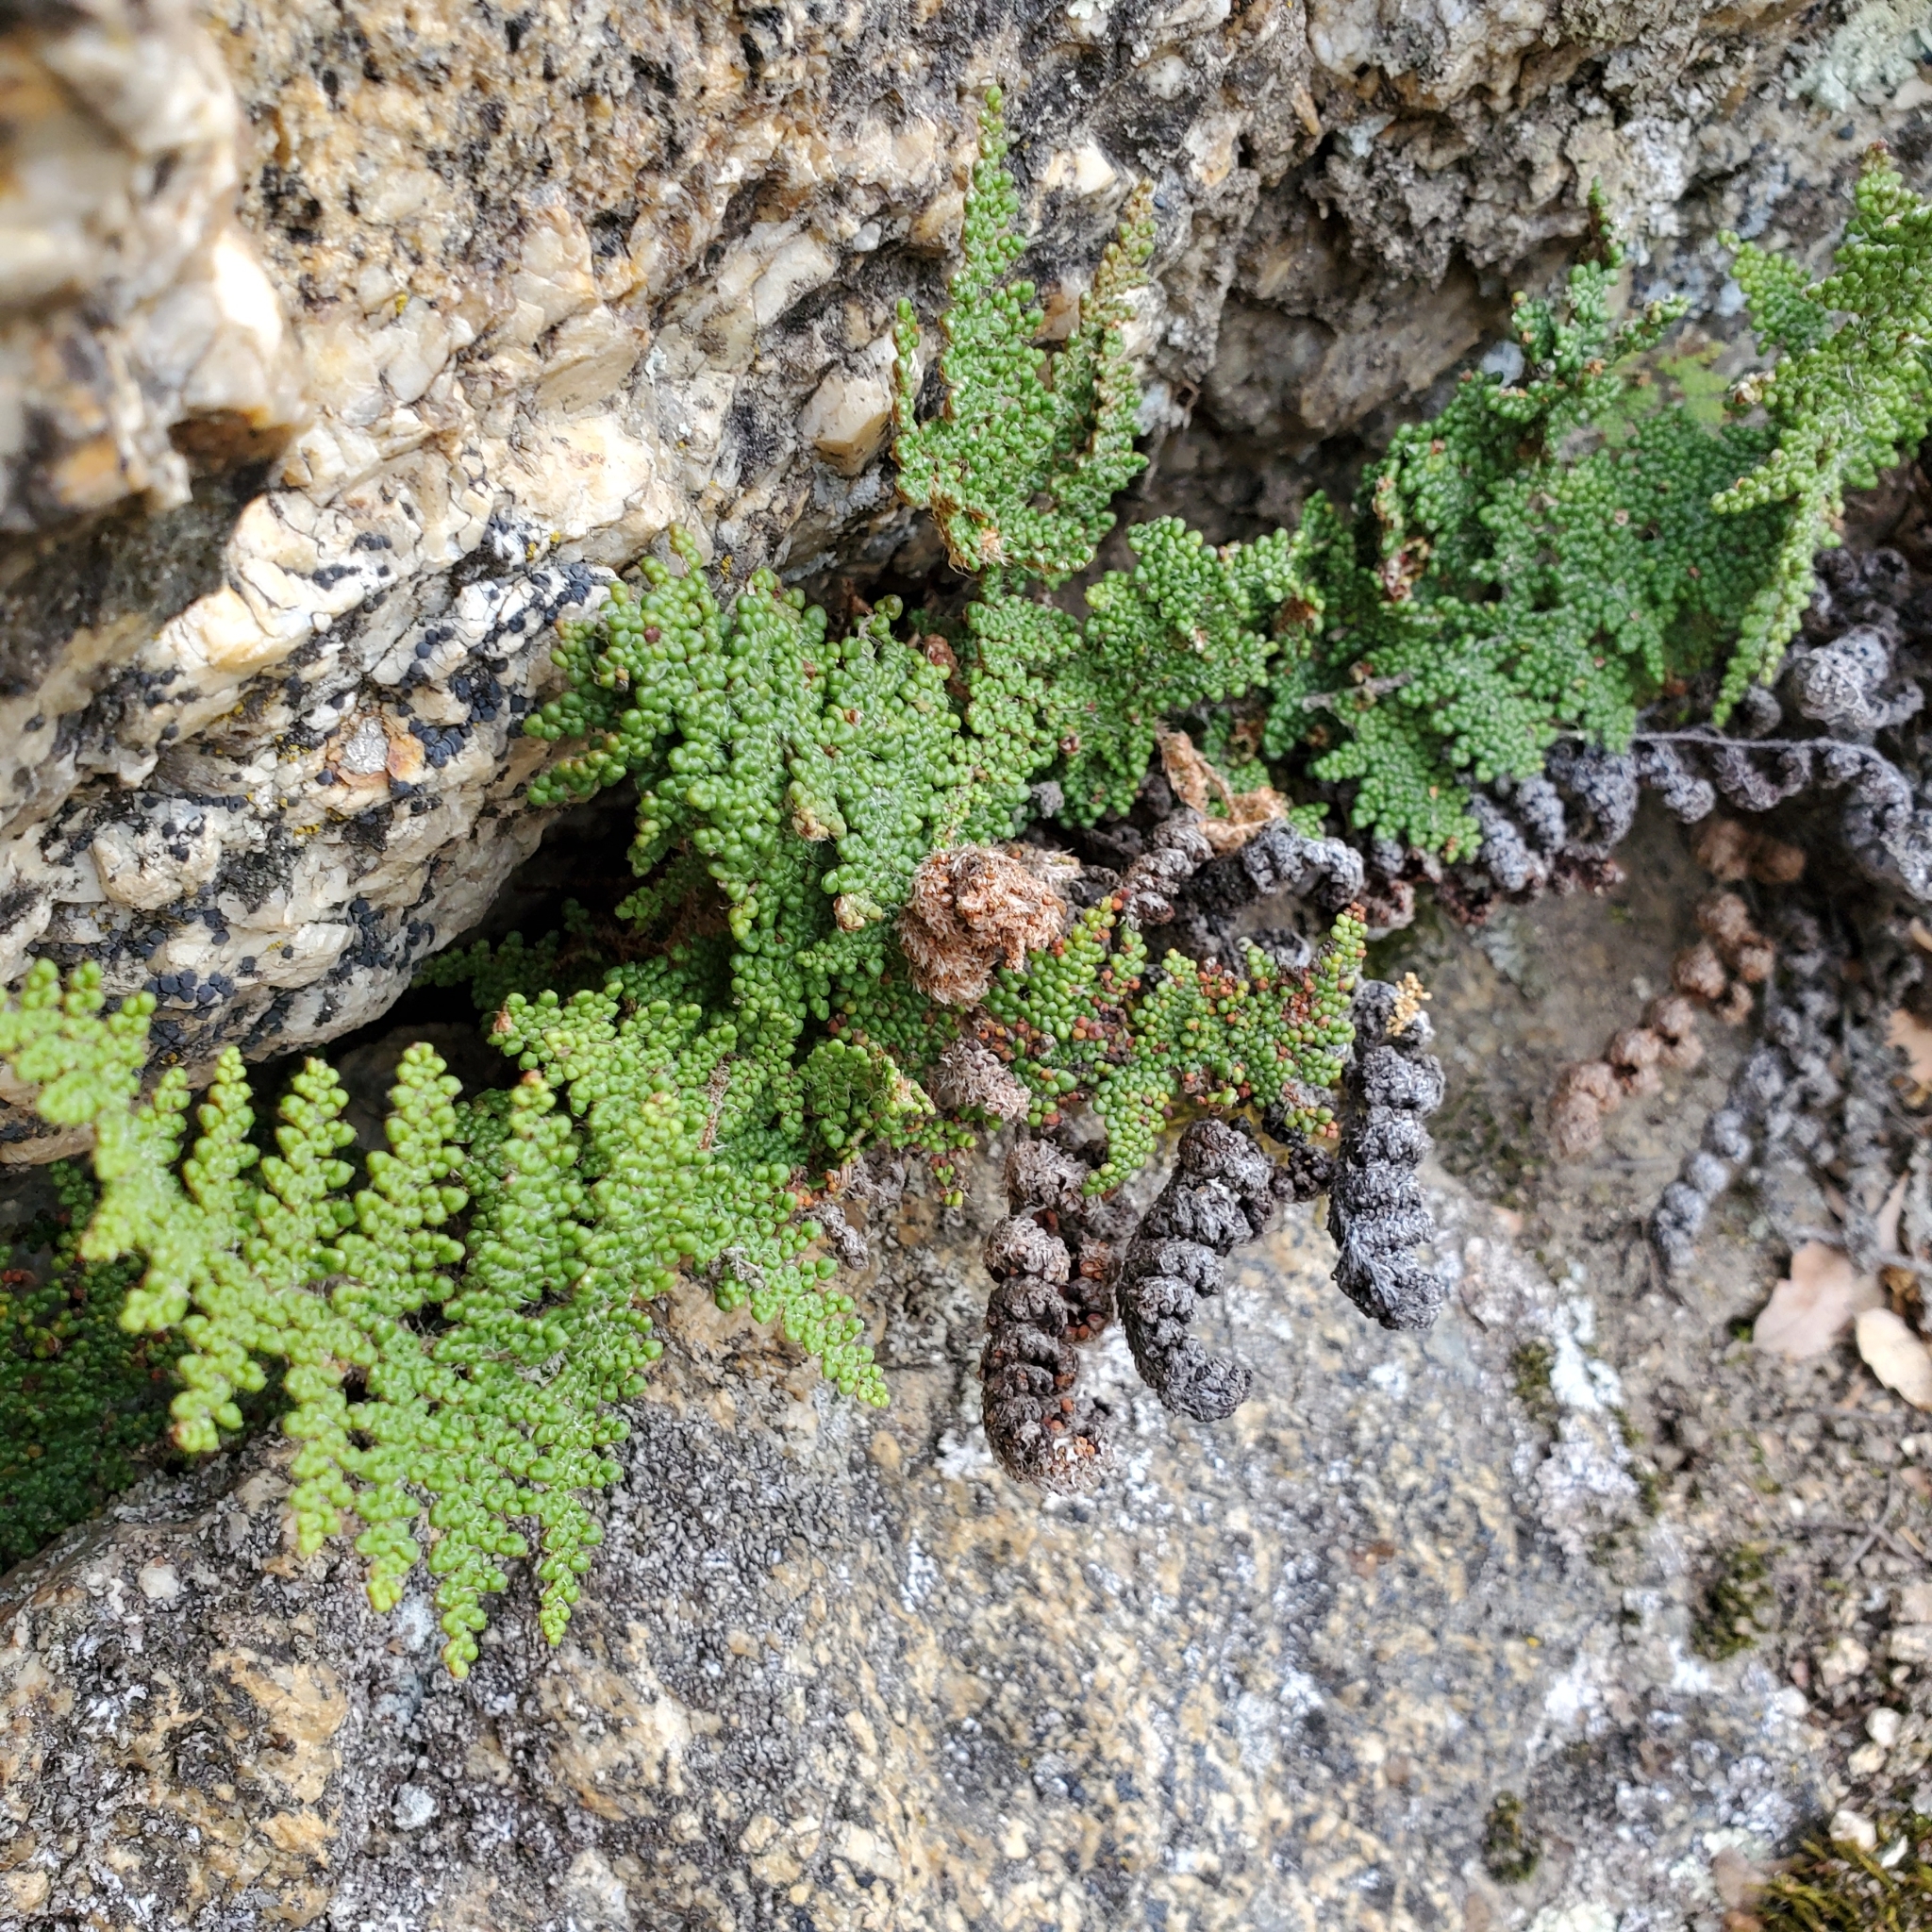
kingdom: Plantae
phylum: Tracheophyta
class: Polypodiopsida
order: Polypodiales
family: Pteridaceae
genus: Myriopteris
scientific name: Myriopteris covillei
